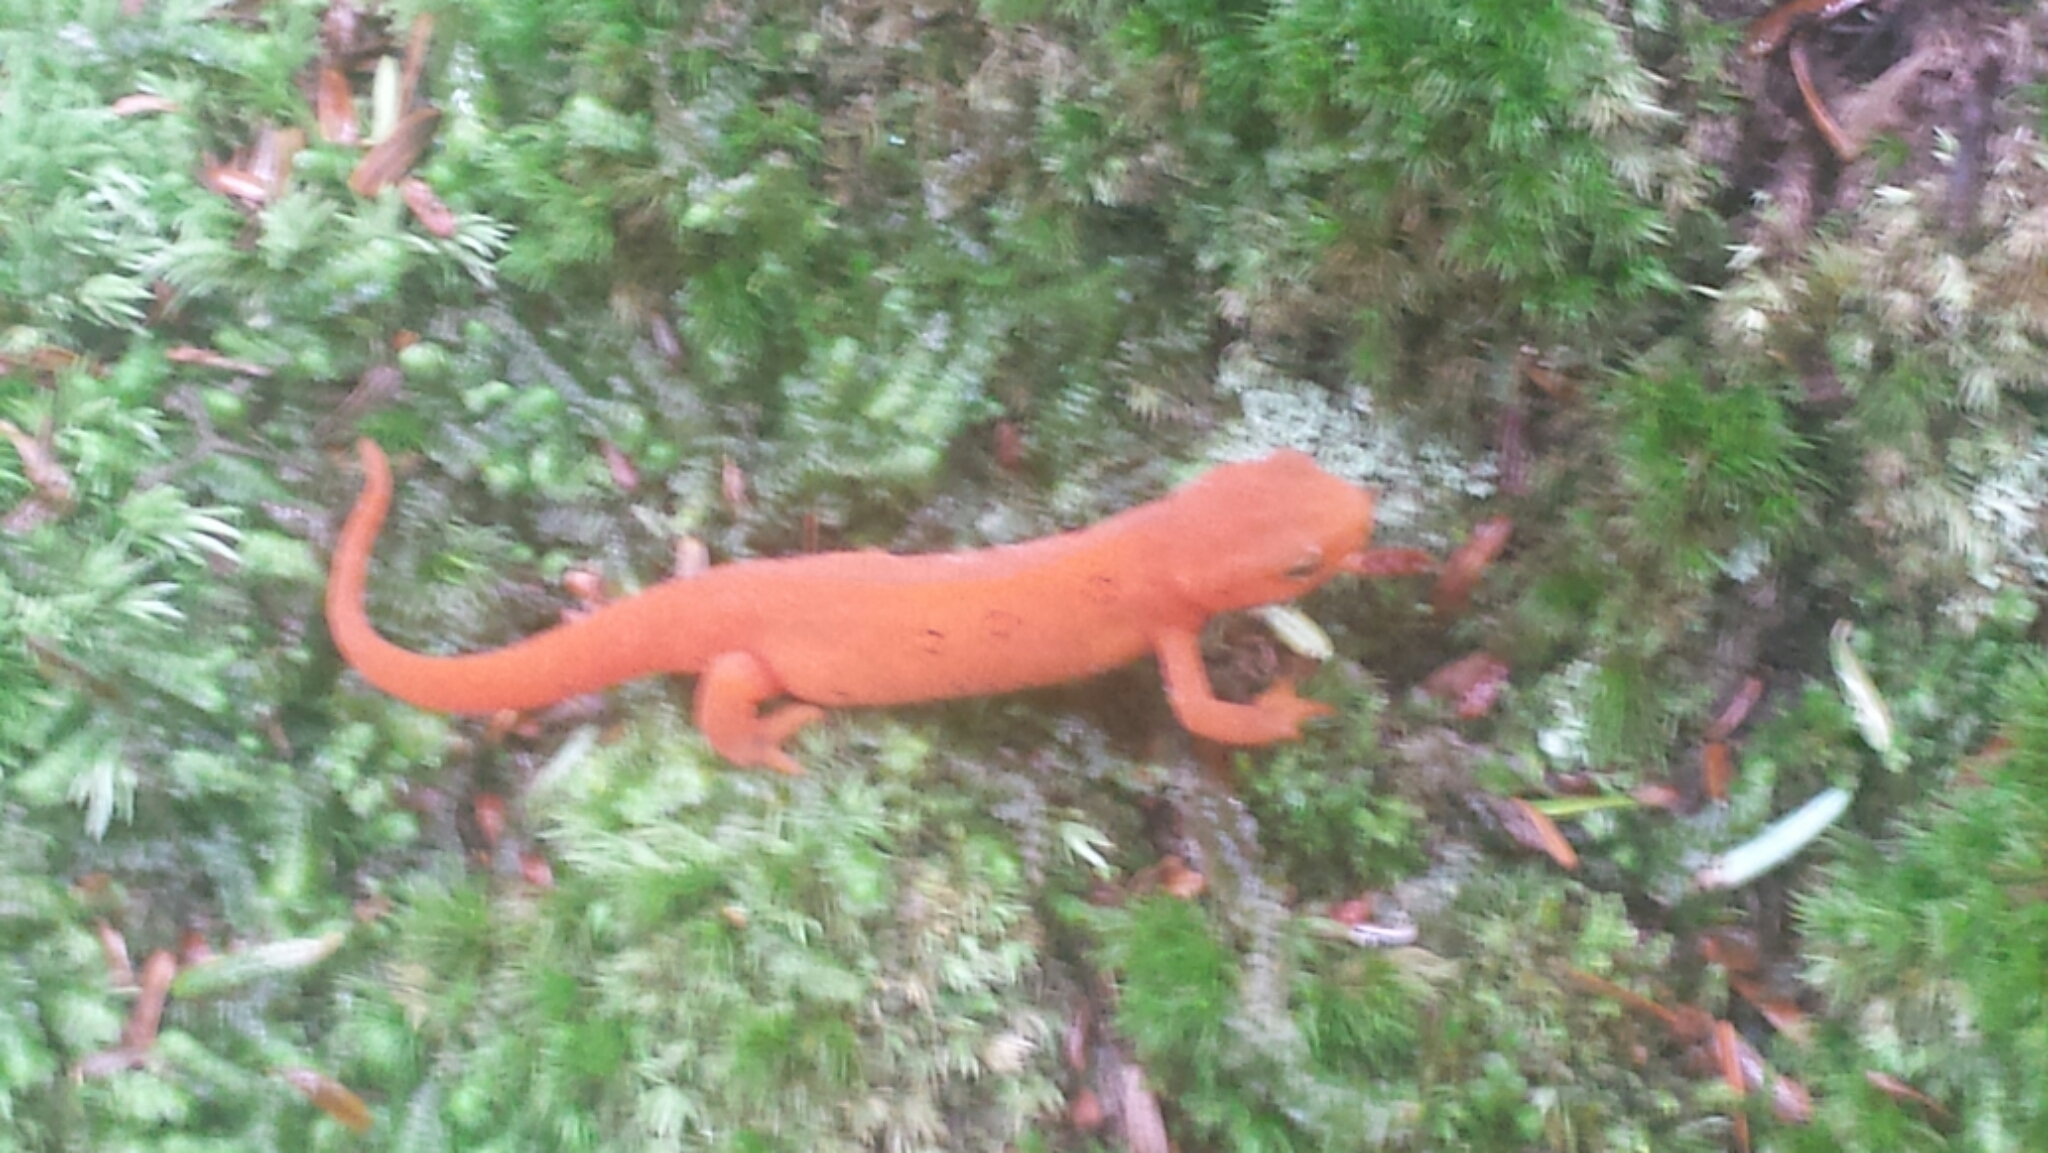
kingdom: Animalia
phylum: Chordata
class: Amphibia
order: Caudata
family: Salamandridae
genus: Notophthalmus
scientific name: Notophthalmus viridescens
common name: Eastern newt
